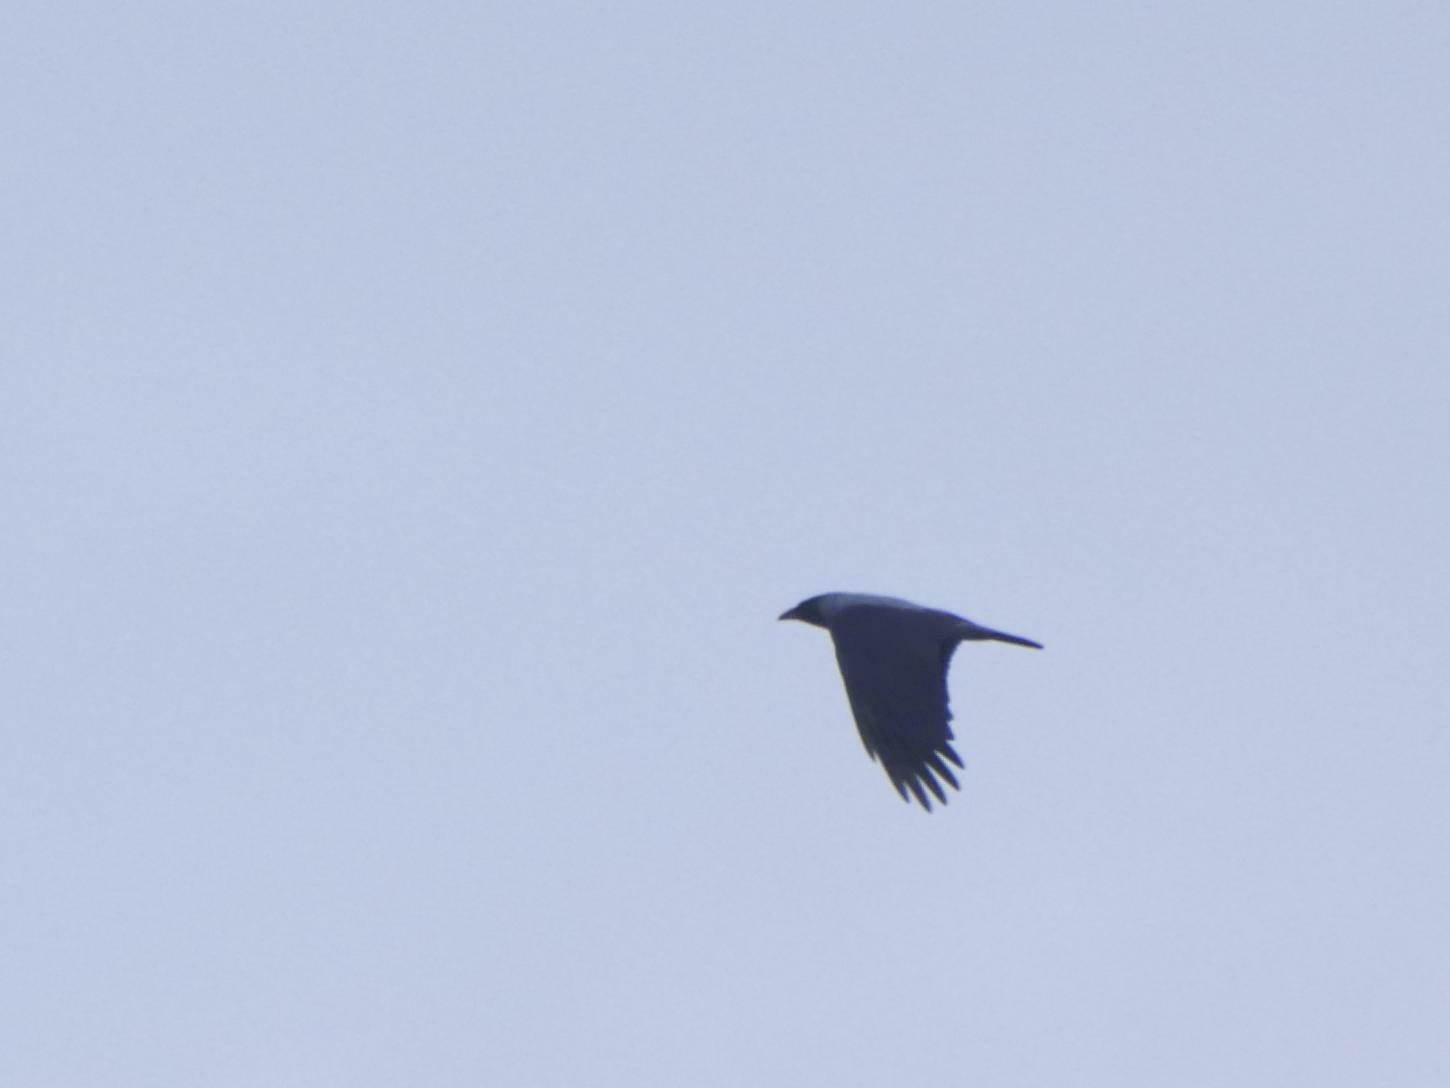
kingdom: Animalia
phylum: Chordata
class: Aves
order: Passeriformes
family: Corvidae
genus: Corvus
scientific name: Corvus cornix
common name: Hooded crow
